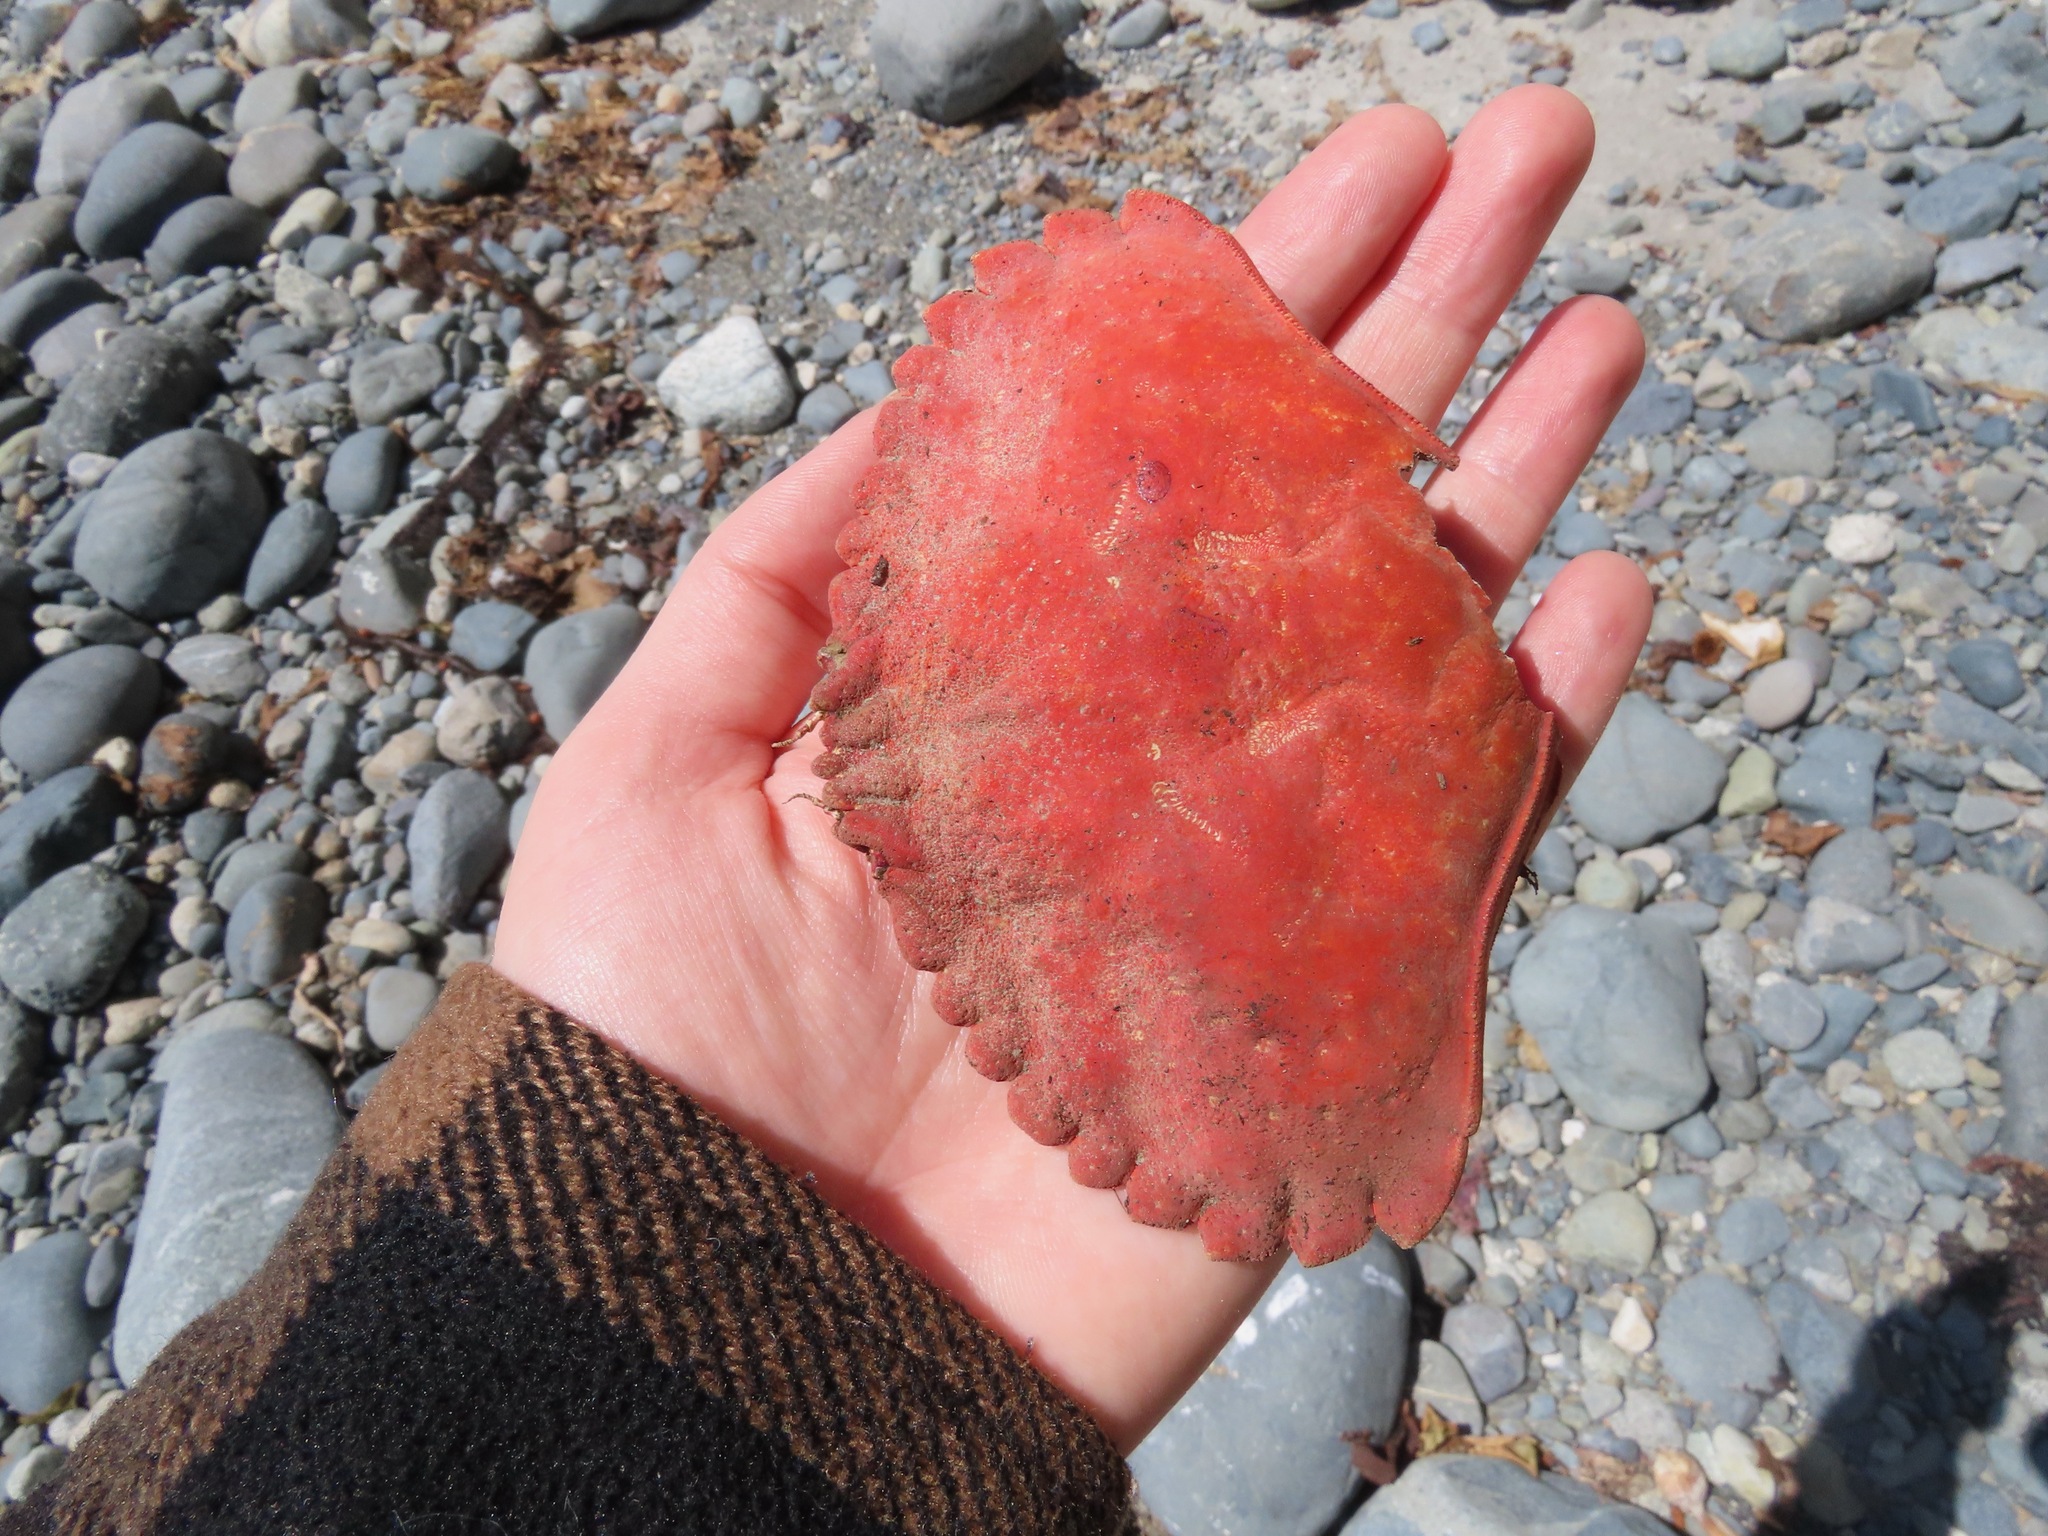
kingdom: Animalia
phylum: Arthropoda
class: Malacostraca
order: Decapoda
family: Cancridae
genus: Cancer
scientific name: Cancer productus
